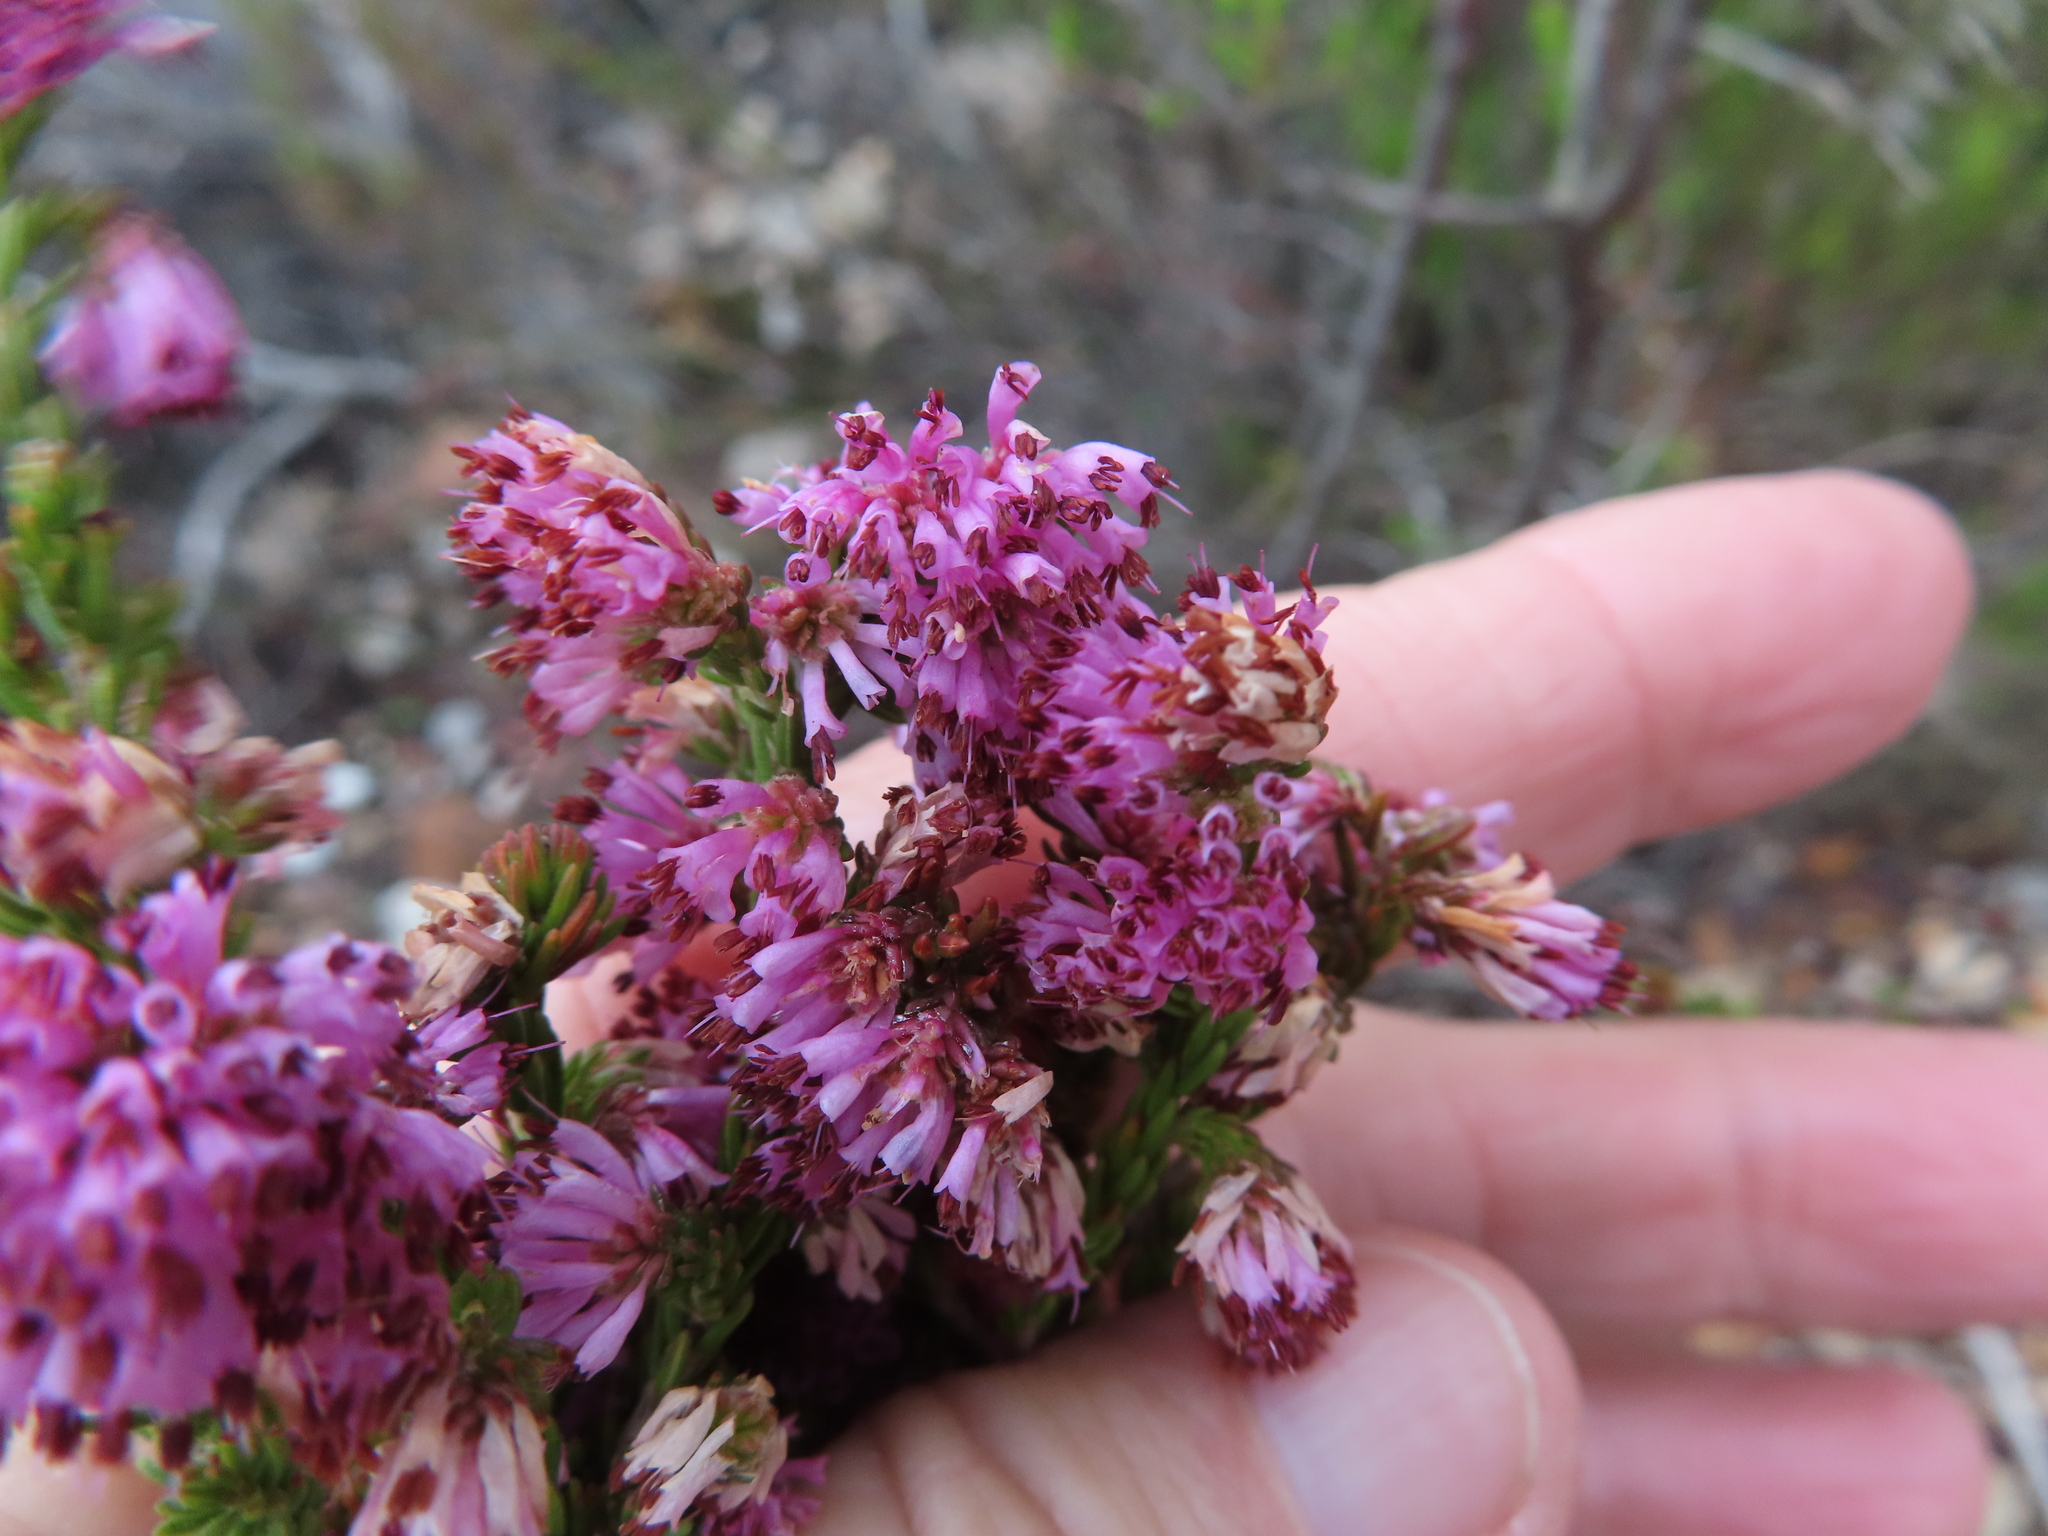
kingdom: Plantae
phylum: Tracheophyta
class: Magnoliopsida
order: Ericales
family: Ericaceae
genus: Erica
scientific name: Erica labialis
